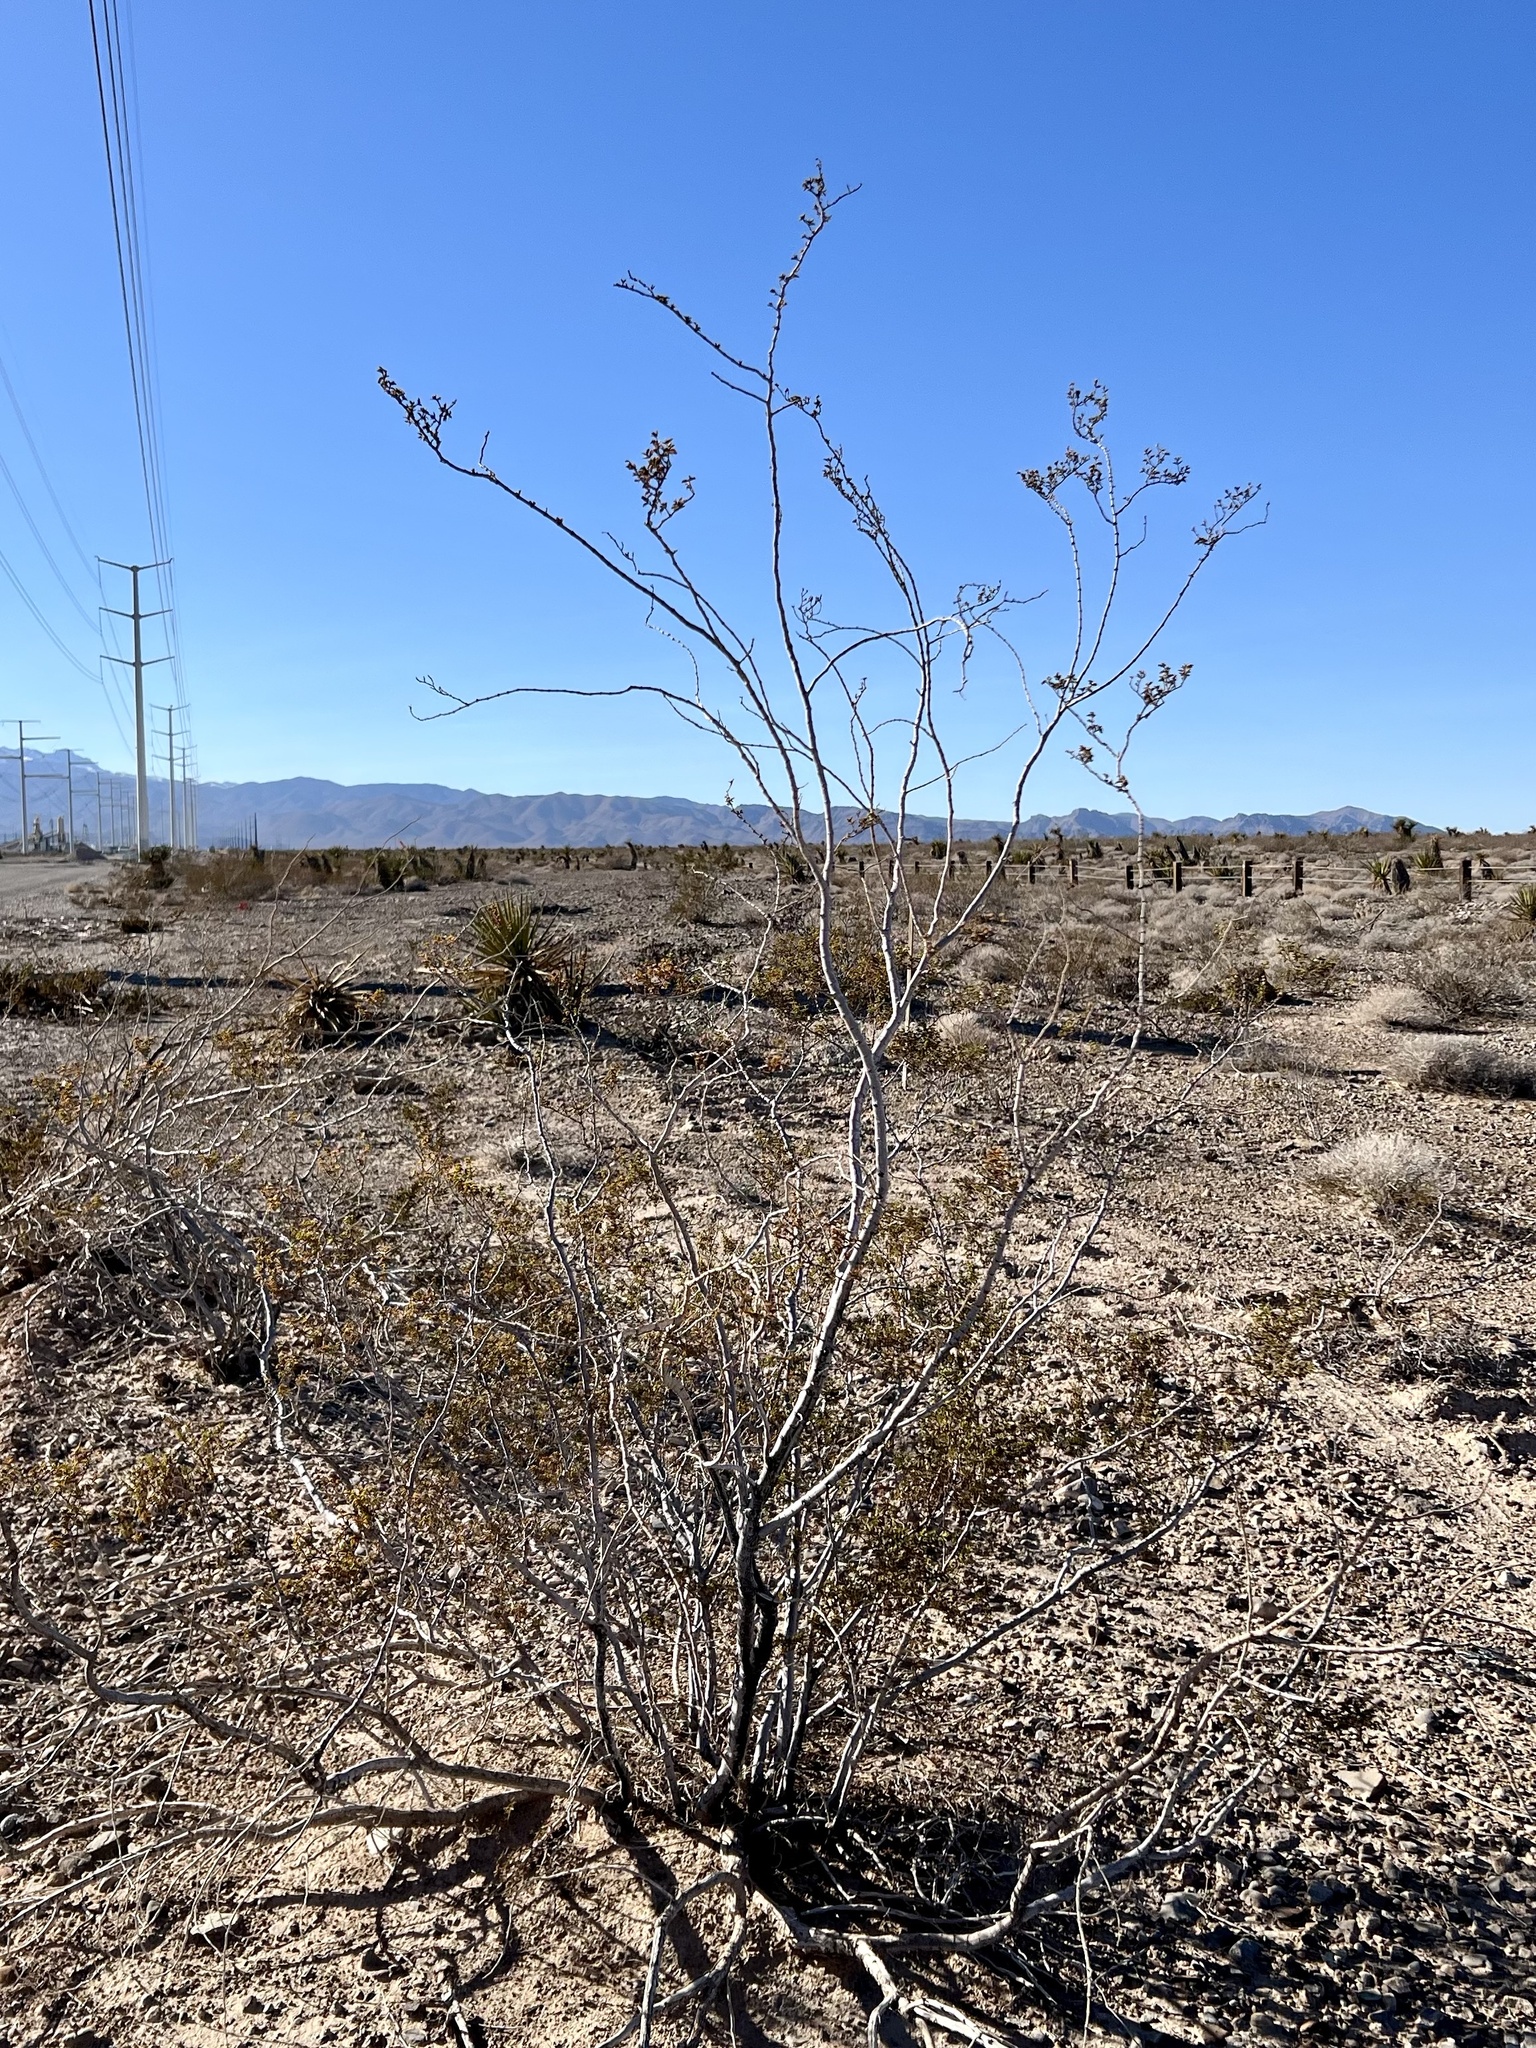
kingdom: Plantae
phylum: Tracheophyta
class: Magnoliopsida
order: Zygophyllales
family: Zygophyllaceae
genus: Larrea
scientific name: Larrea tridentata
